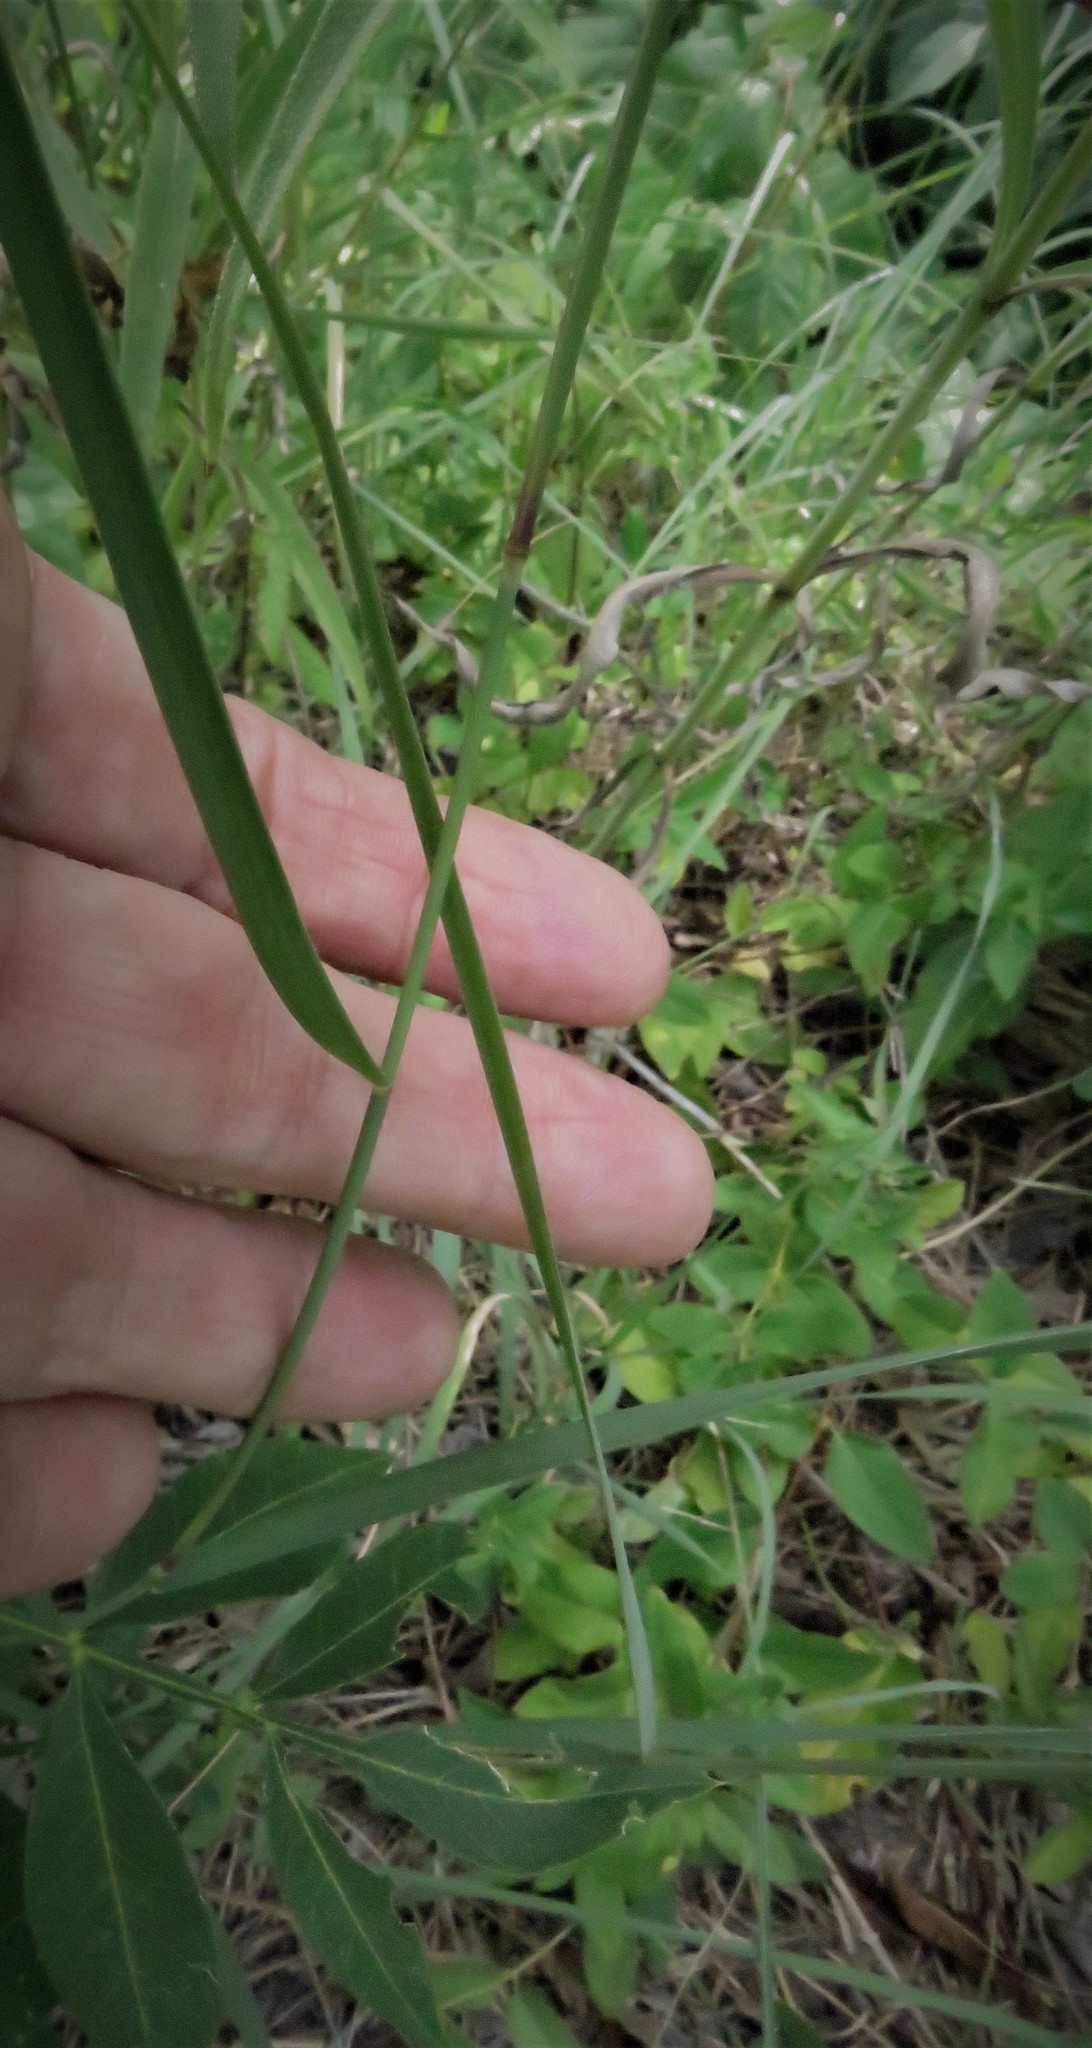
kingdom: Plantae
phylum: Tracheophyta
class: Liliopsida
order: Poales
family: Poaceae
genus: Bouteloua
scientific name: Bouteloua curtipendula
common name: Side-oats grama
